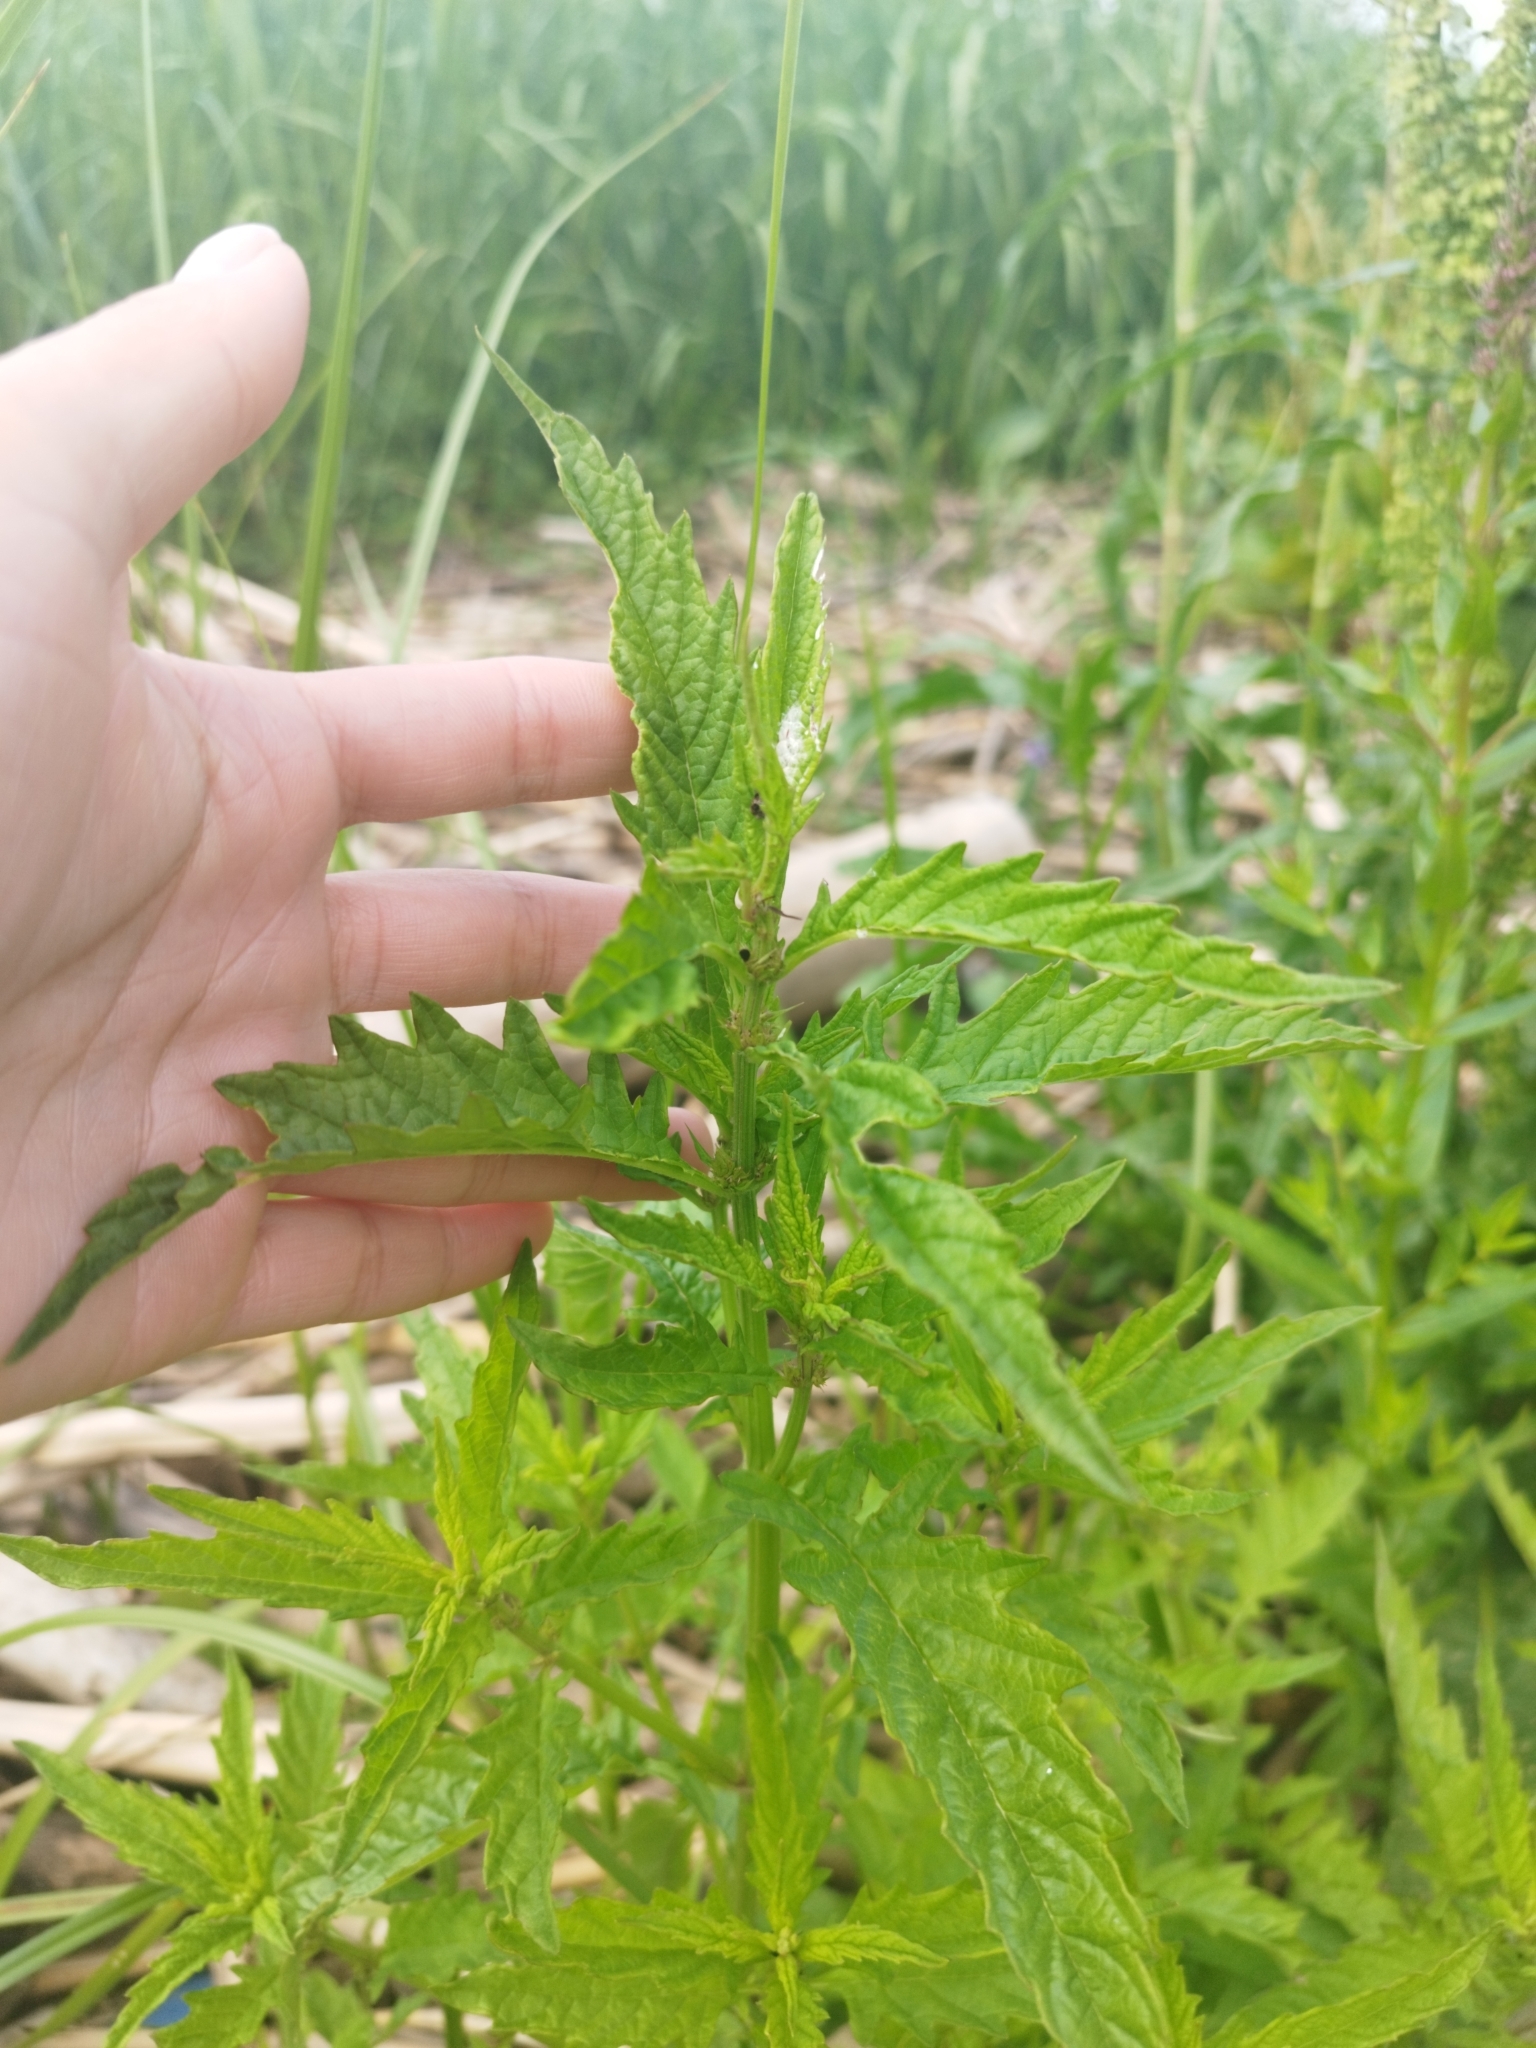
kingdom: Plantae
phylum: Tracheophyta
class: Magnoliopsida
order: Lamiales
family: Lamiaceae
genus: Lycopus
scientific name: Lycopus europaeus
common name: European bugleweed
